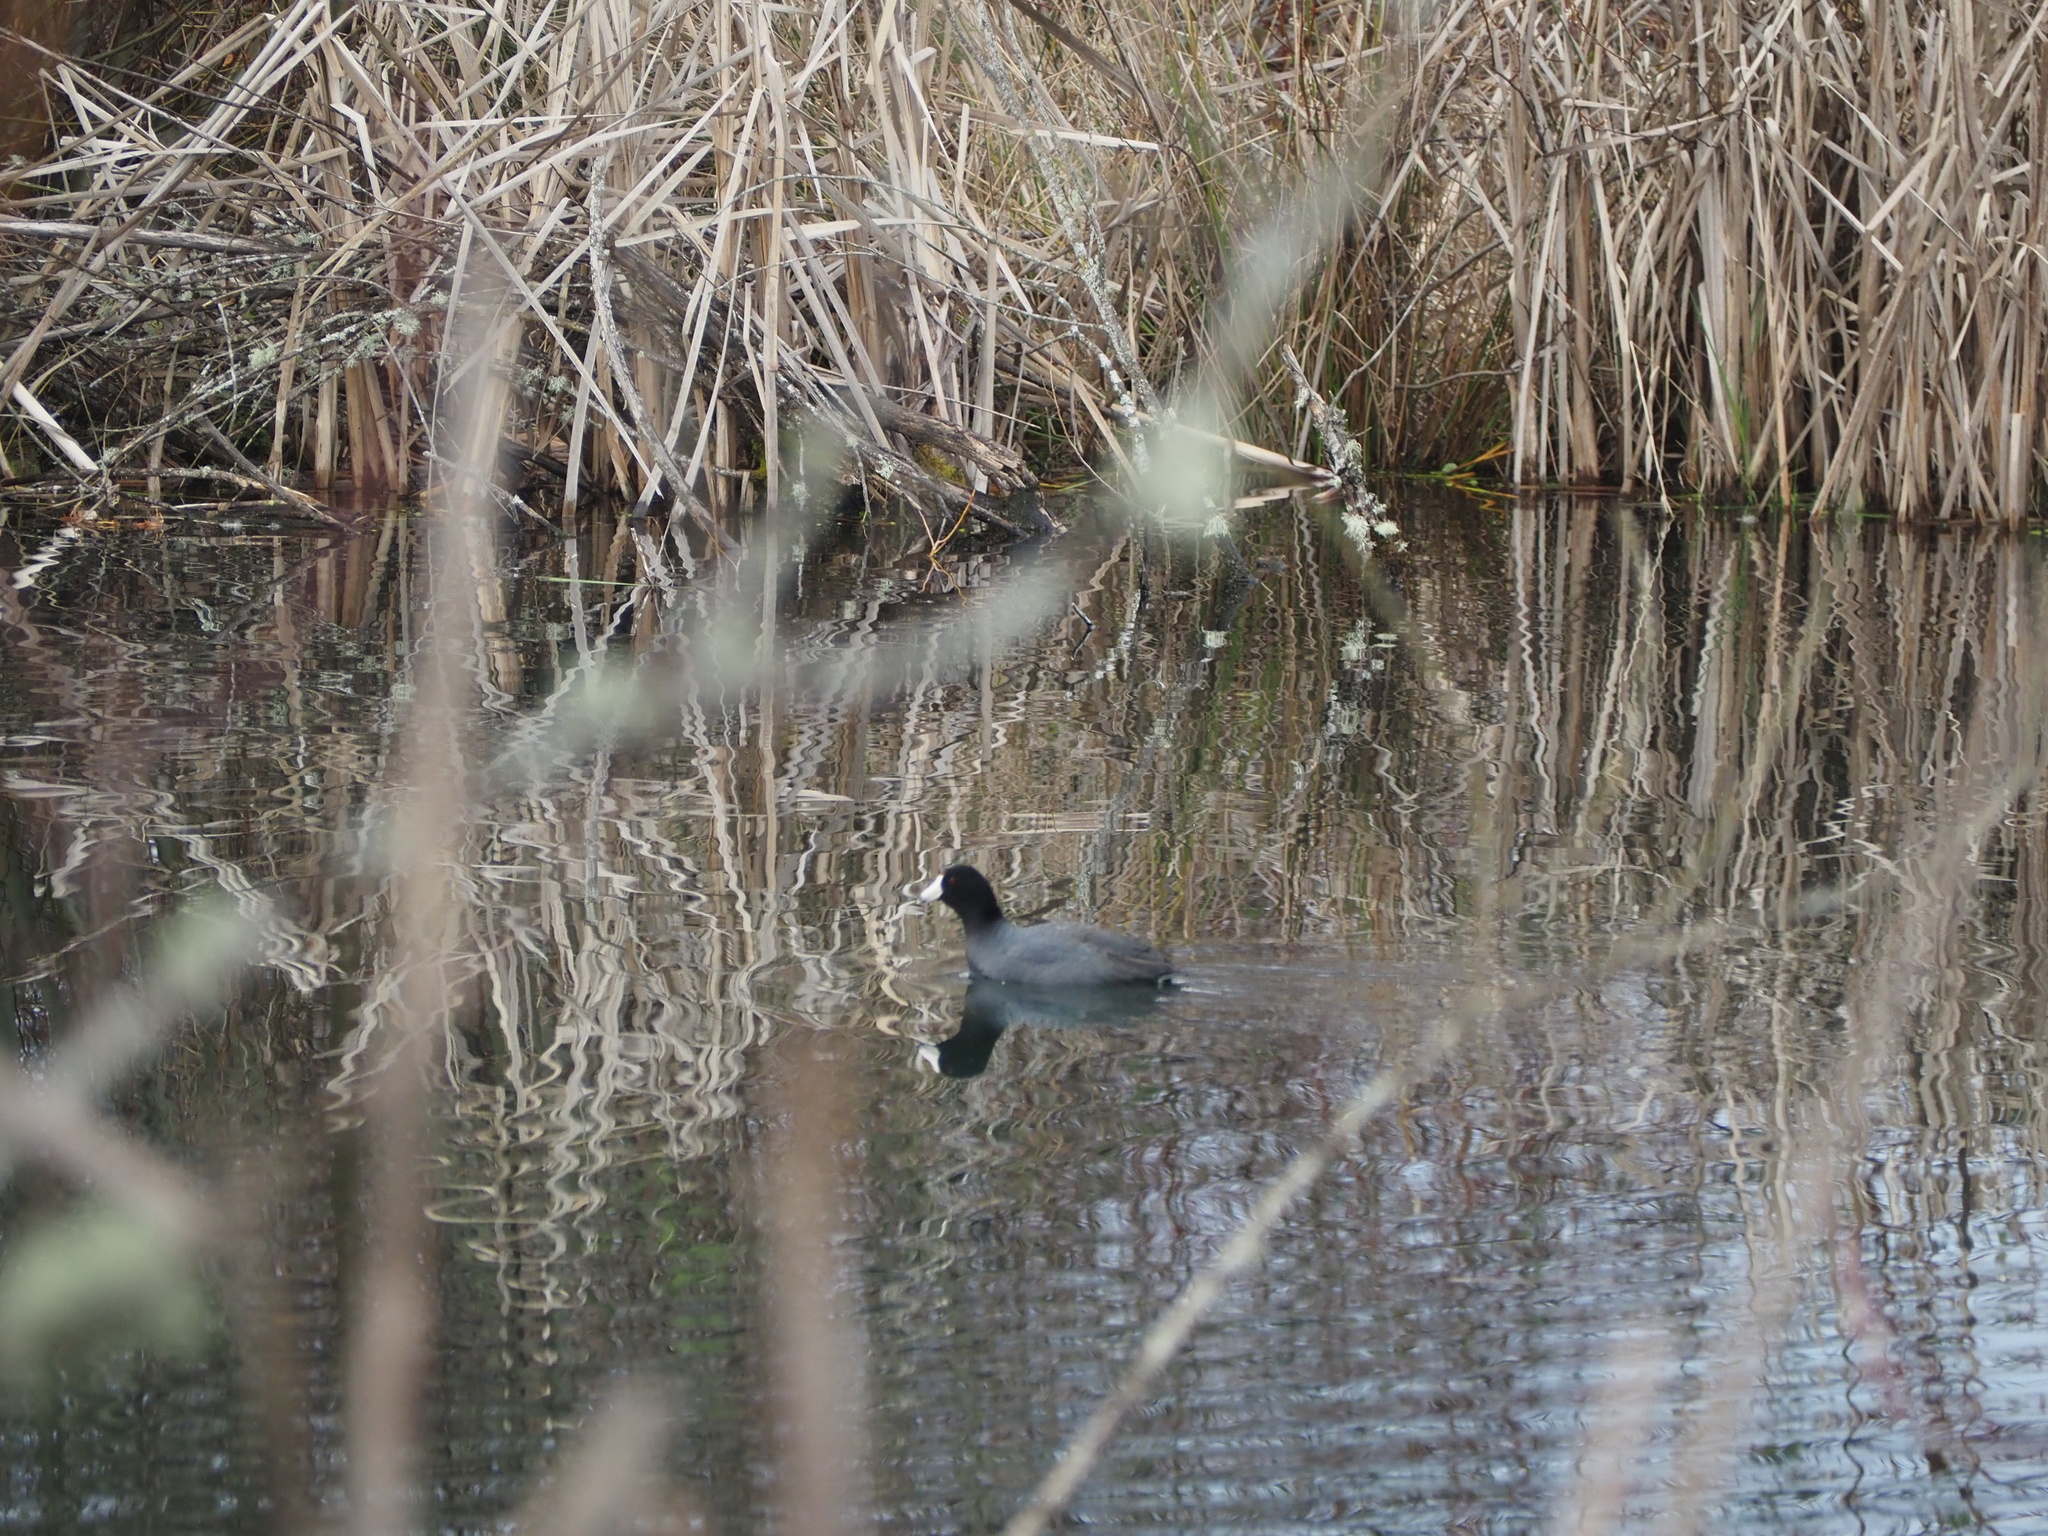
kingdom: Animalia
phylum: Chordata
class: Aves
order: Gruiformes
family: Rallidae
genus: Fulica
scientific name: Fulica americana
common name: American coot
